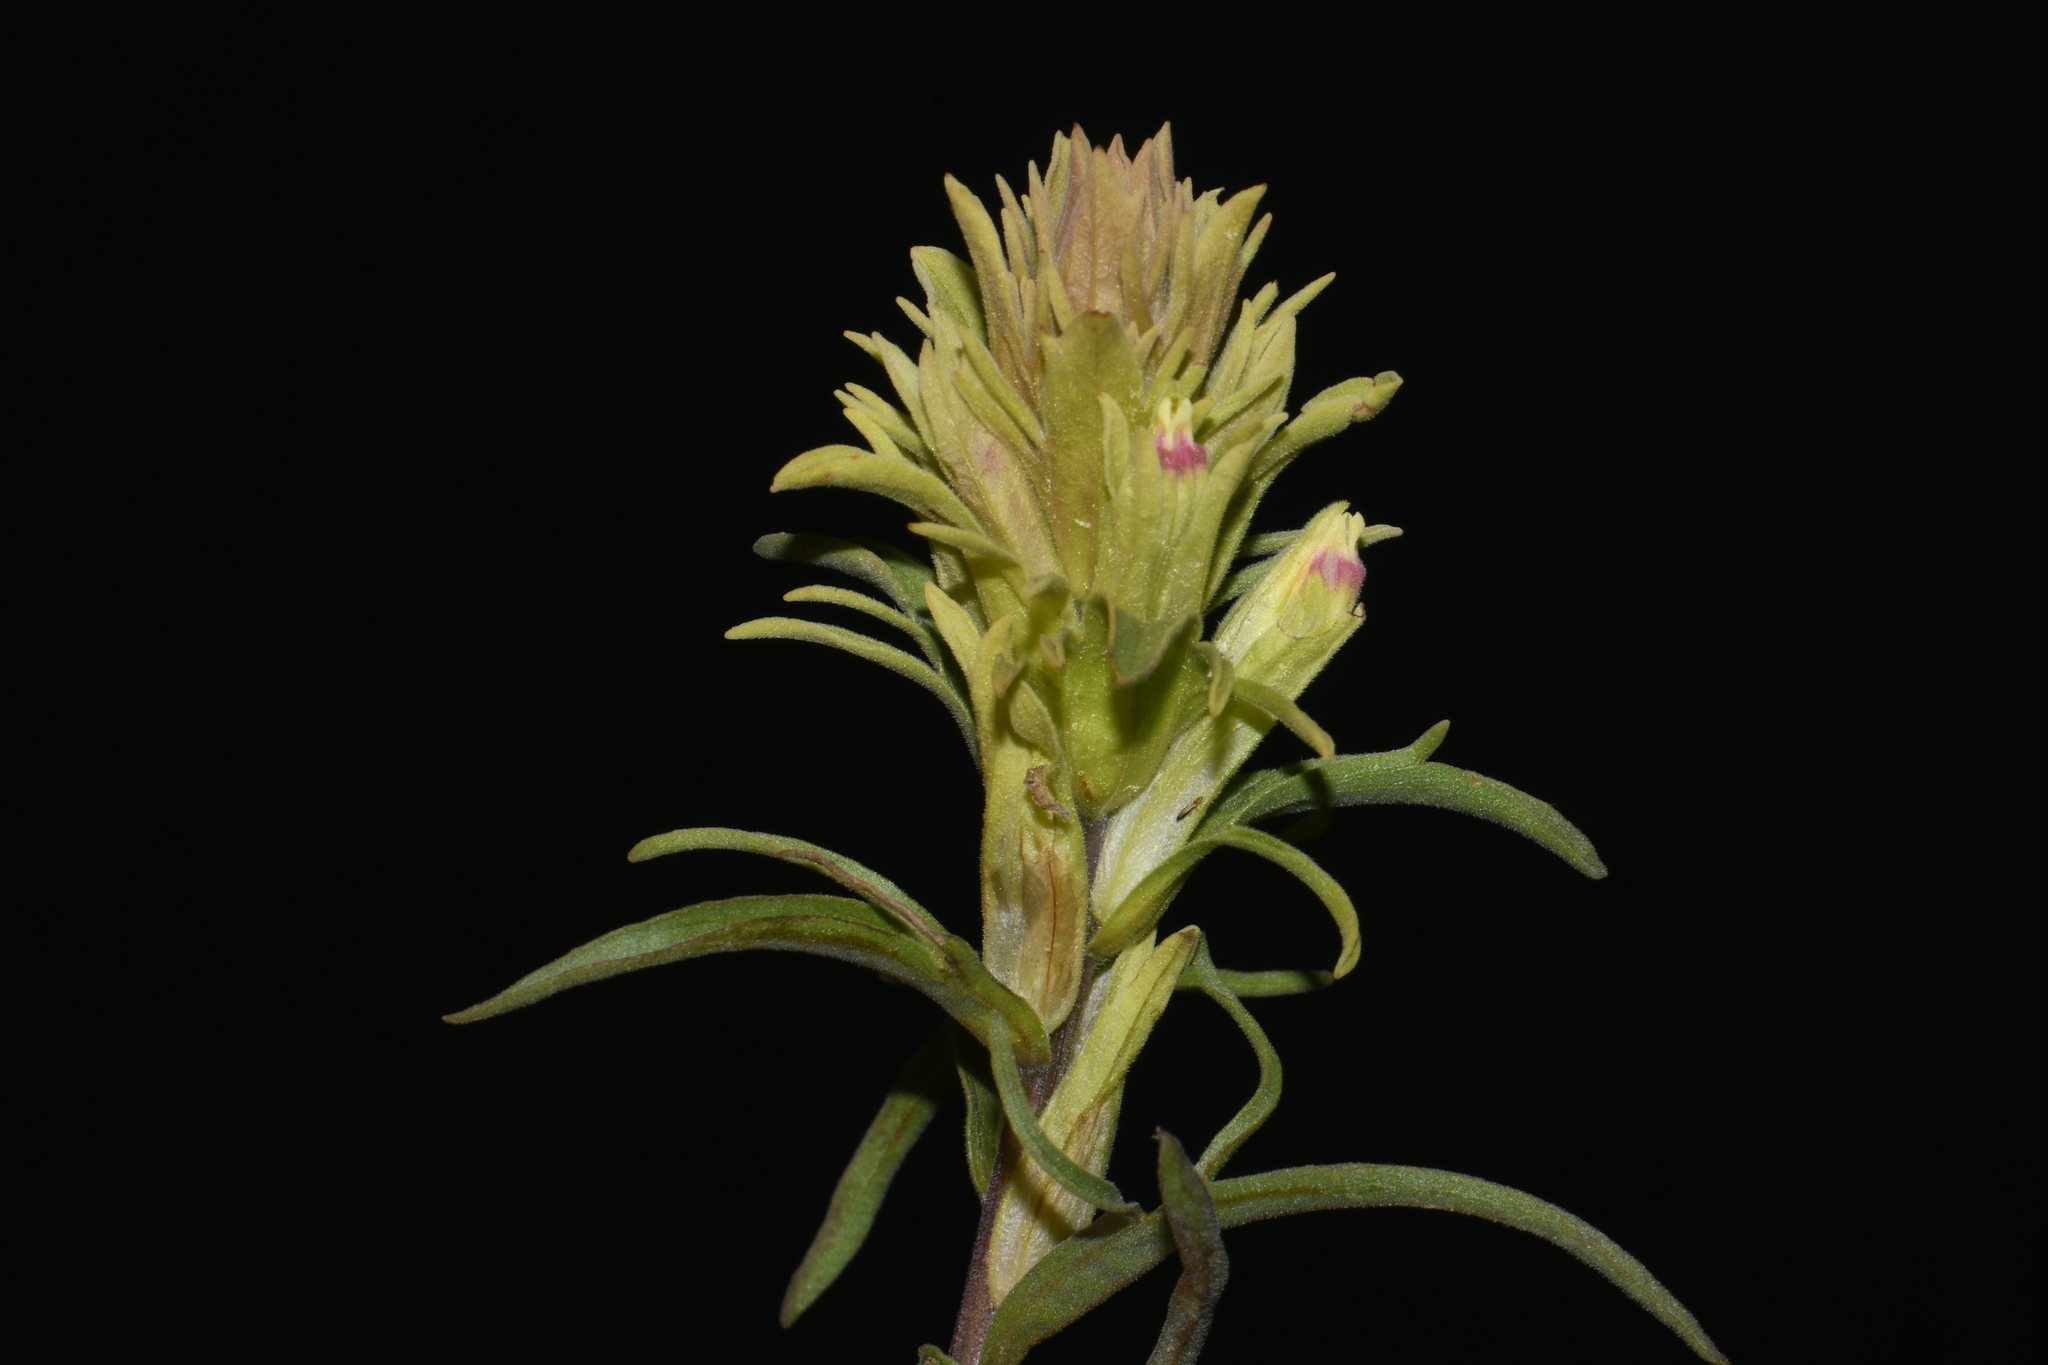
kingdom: Plantae
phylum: Tracheophyta
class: Magnoliopsida
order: Lamiales
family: Orobanchaceae
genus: Castilleja
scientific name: Castilleja pallescens
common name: Pale paintbrush
